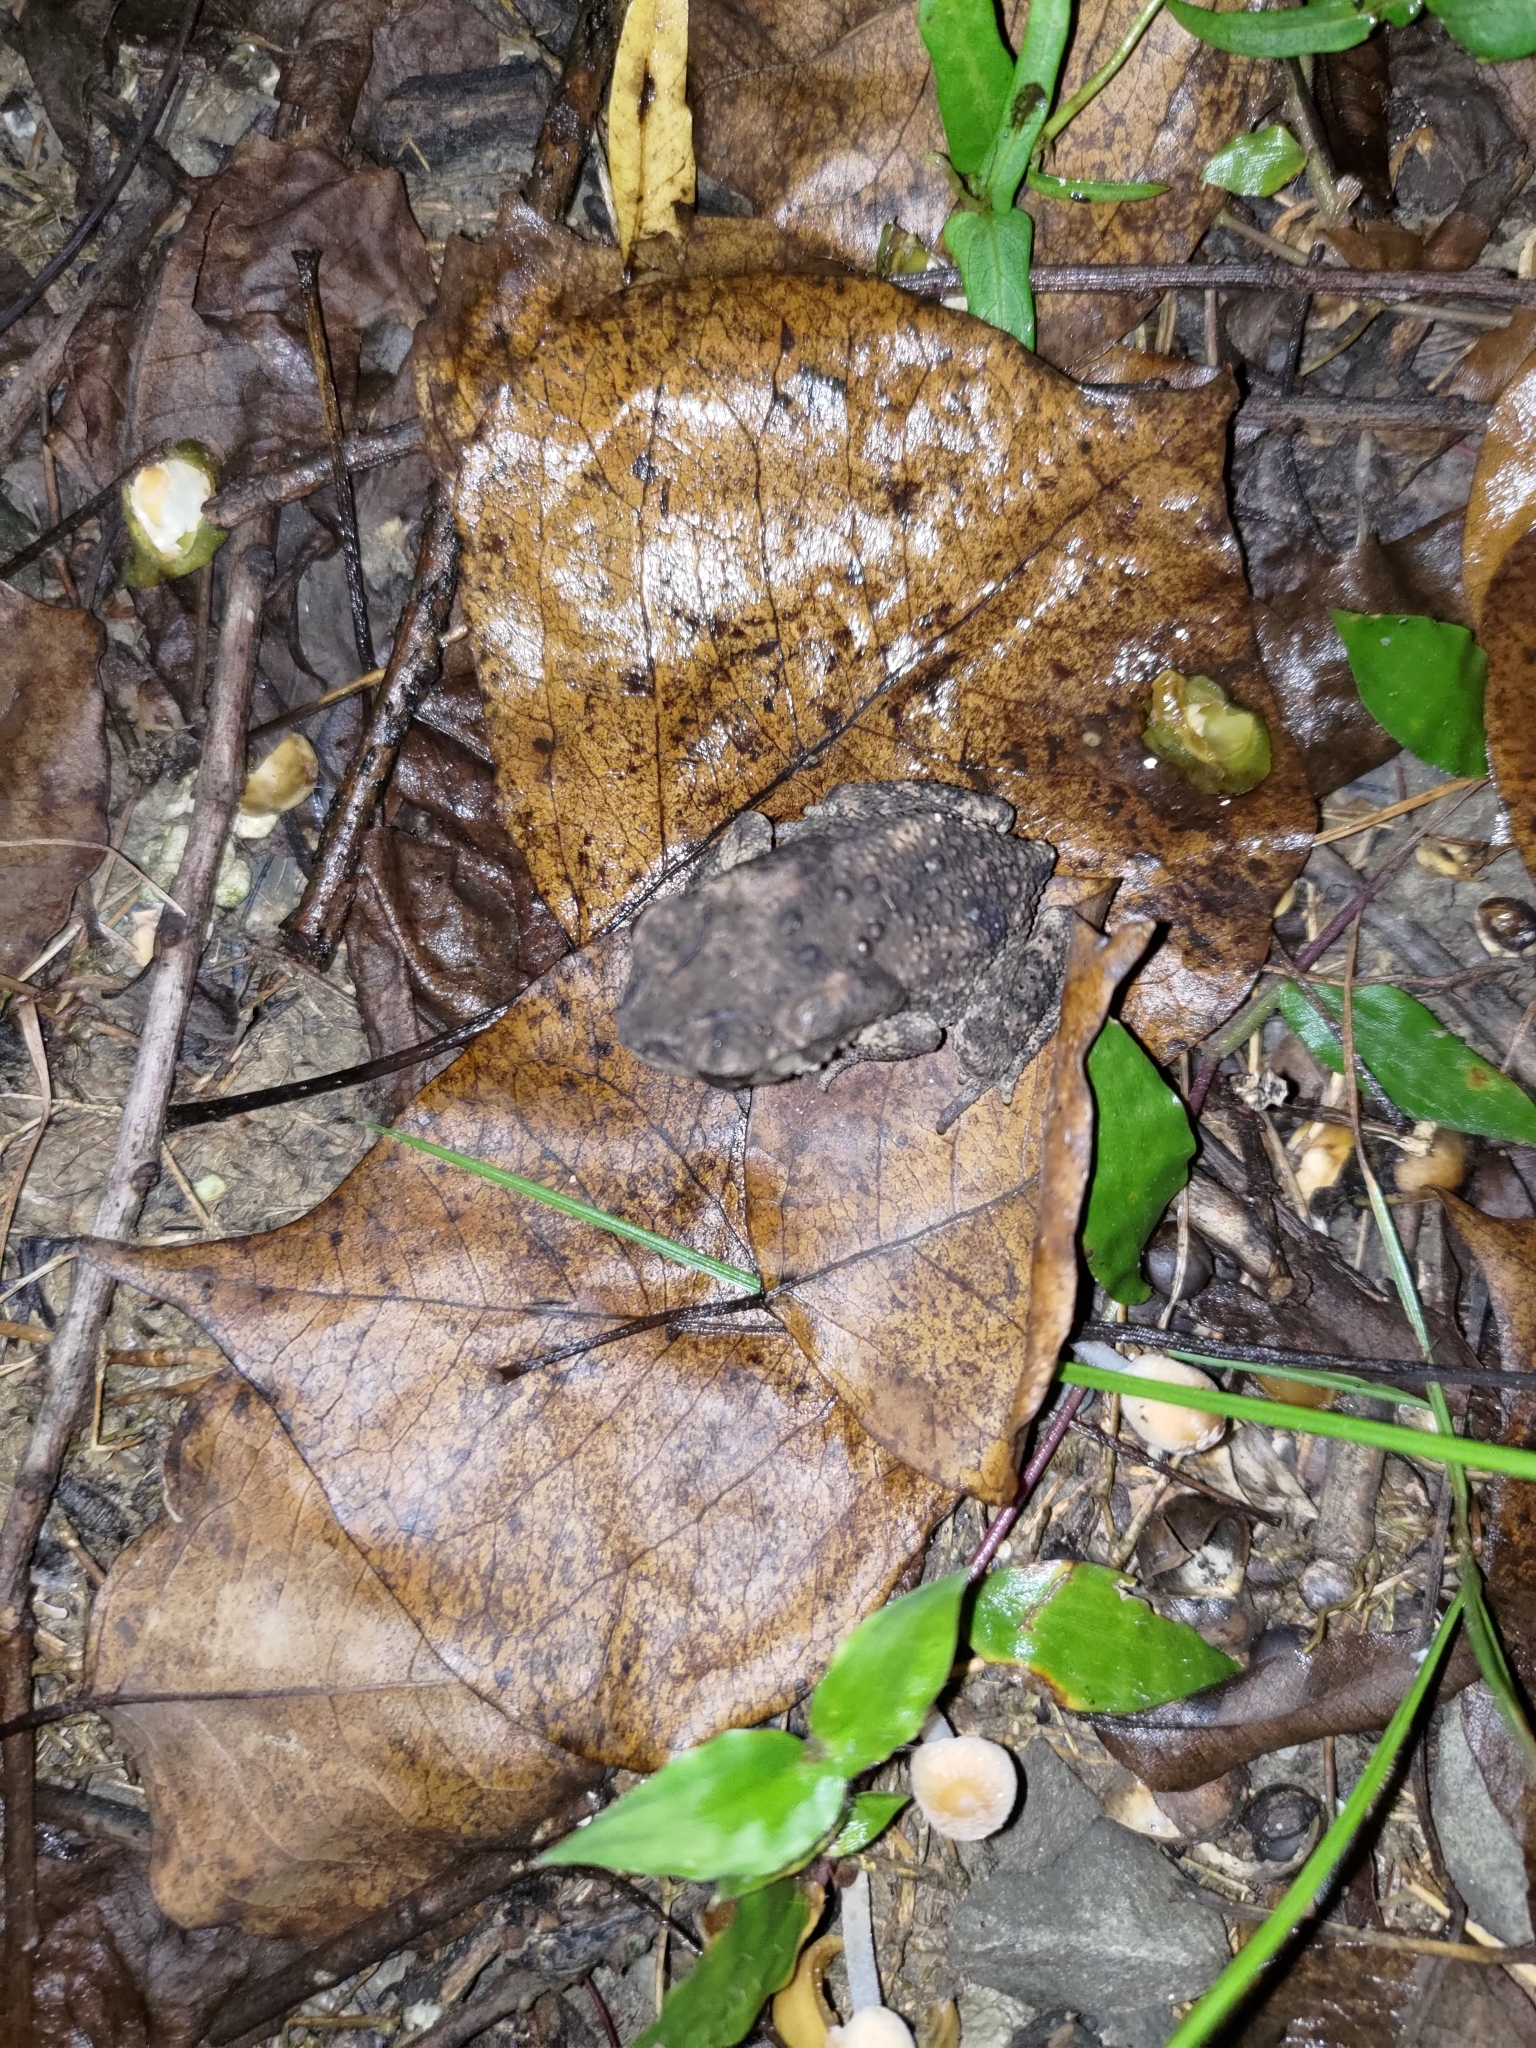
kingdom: Animalia
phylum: Chordata
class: Amphibia
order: Anura
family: Bufonidae
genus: Duttaphrynus
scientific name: Duttaphrynus melanostictus
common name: Common sunda toad
